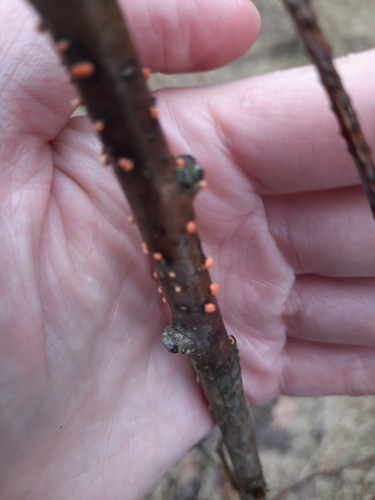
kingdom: Fungi
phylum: Ascomycota
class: Sordariomycetes
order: Hypocreales
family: Nectriaceae
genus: Nectria
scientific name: Nectria cinnabarina
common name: Coral spot
